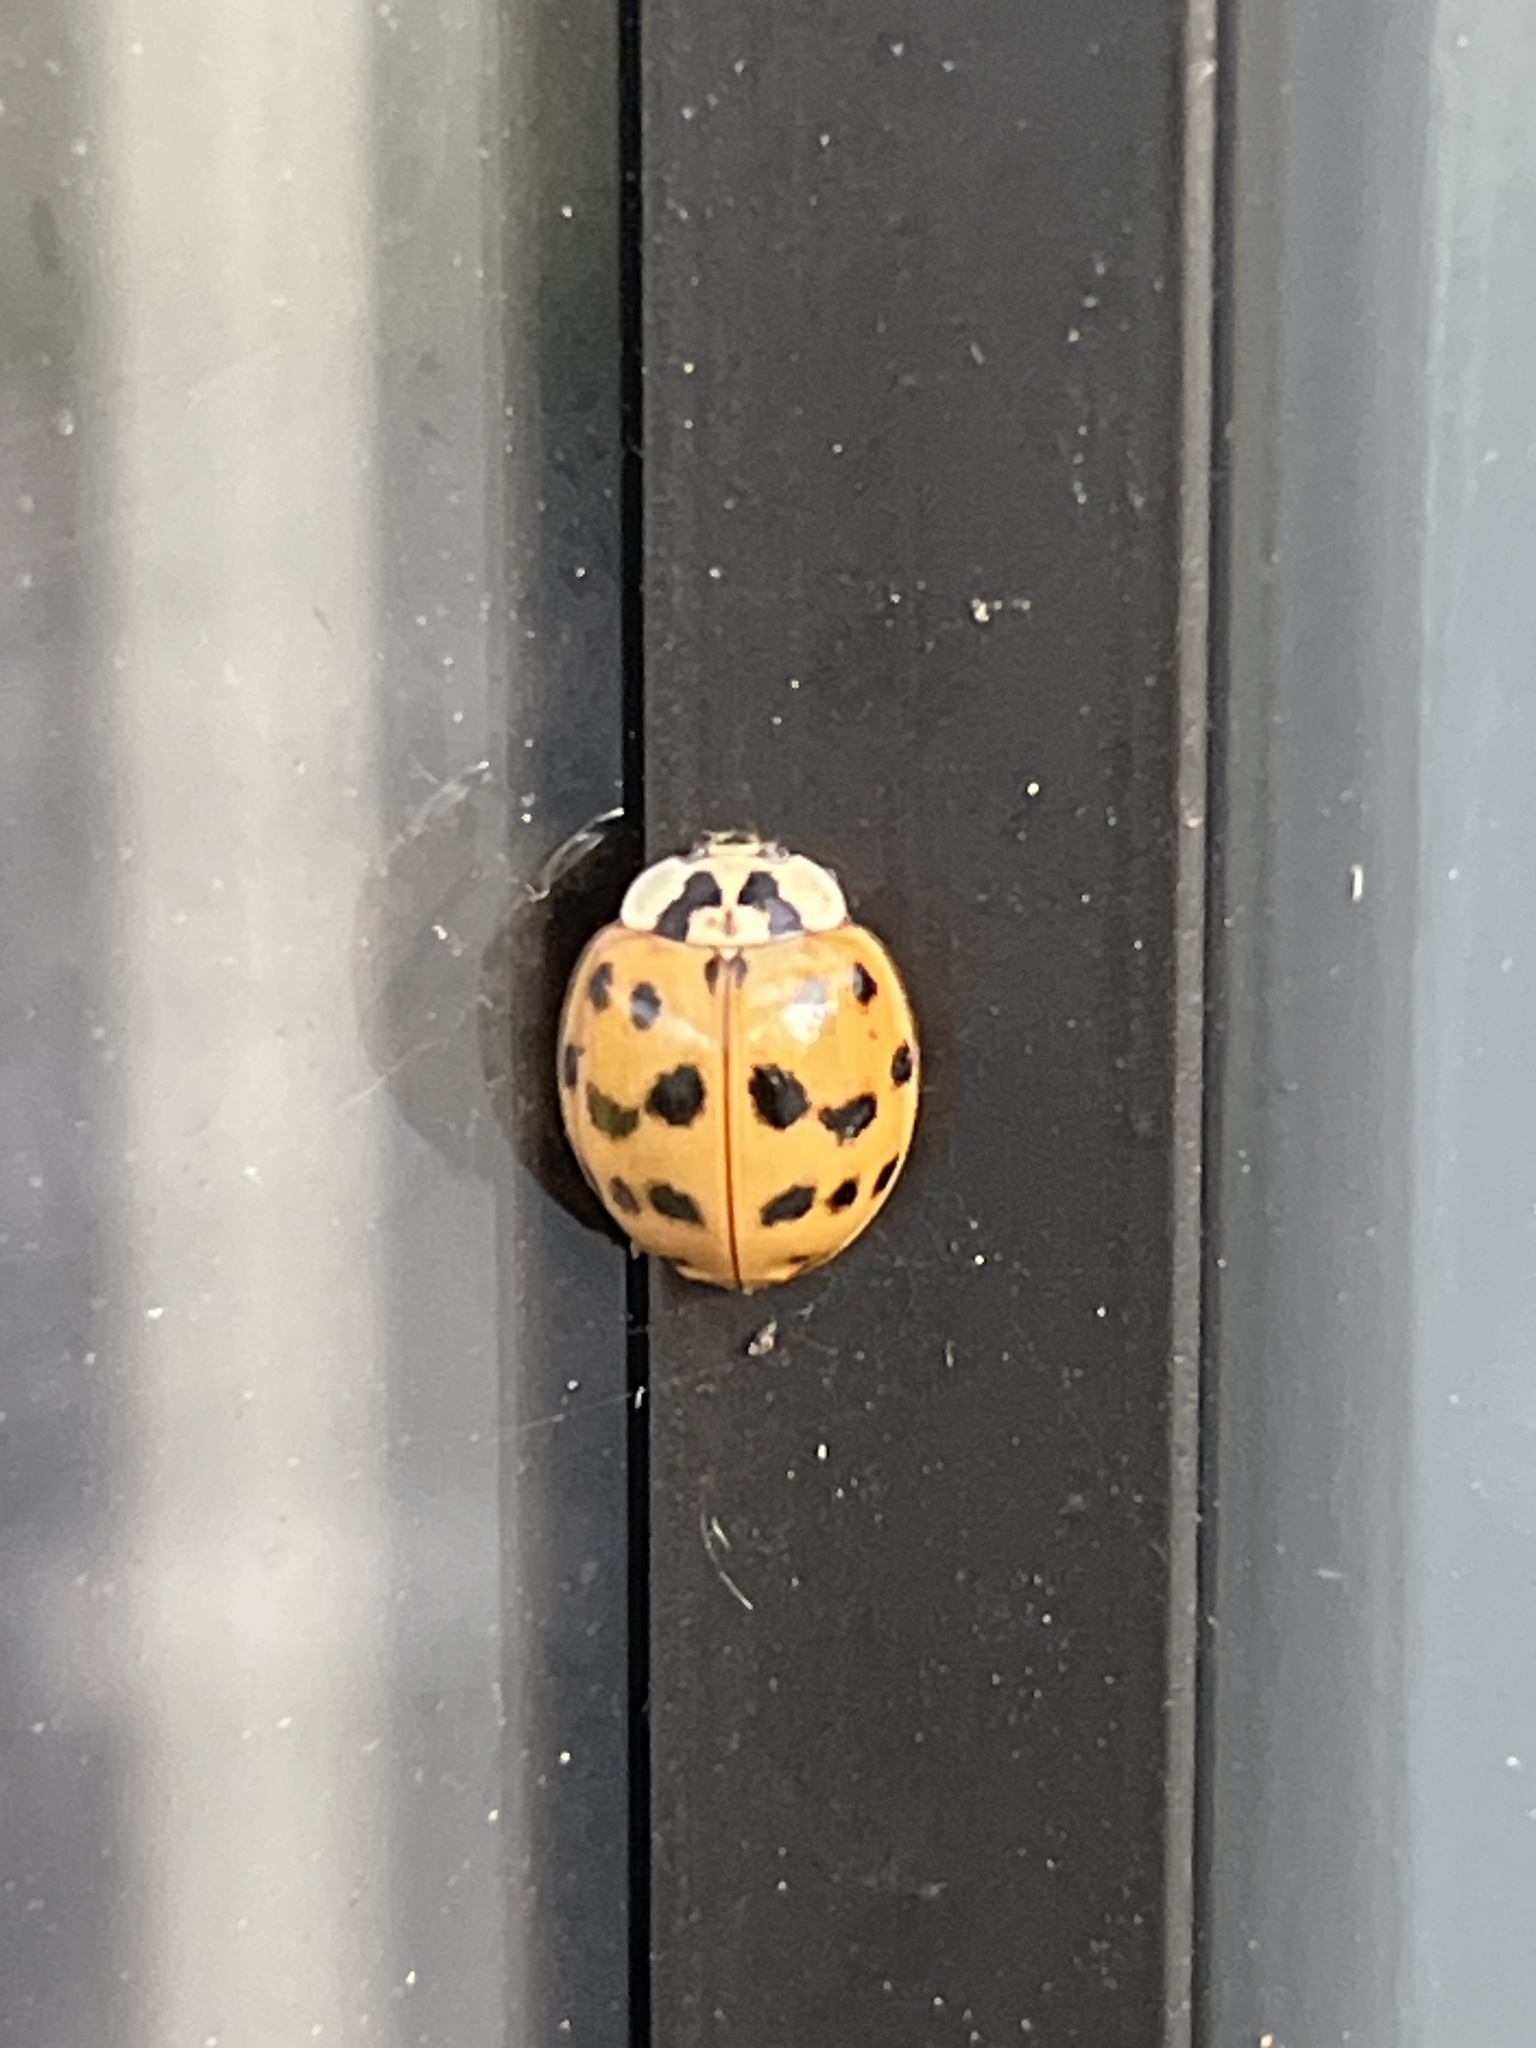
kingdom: Animalia
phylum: Arthropoda
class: Insecta
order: Coleoptera
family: Coccinellidae
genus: Harmonia
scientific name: Harmonia axyridis
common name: Harlequin ladybird
